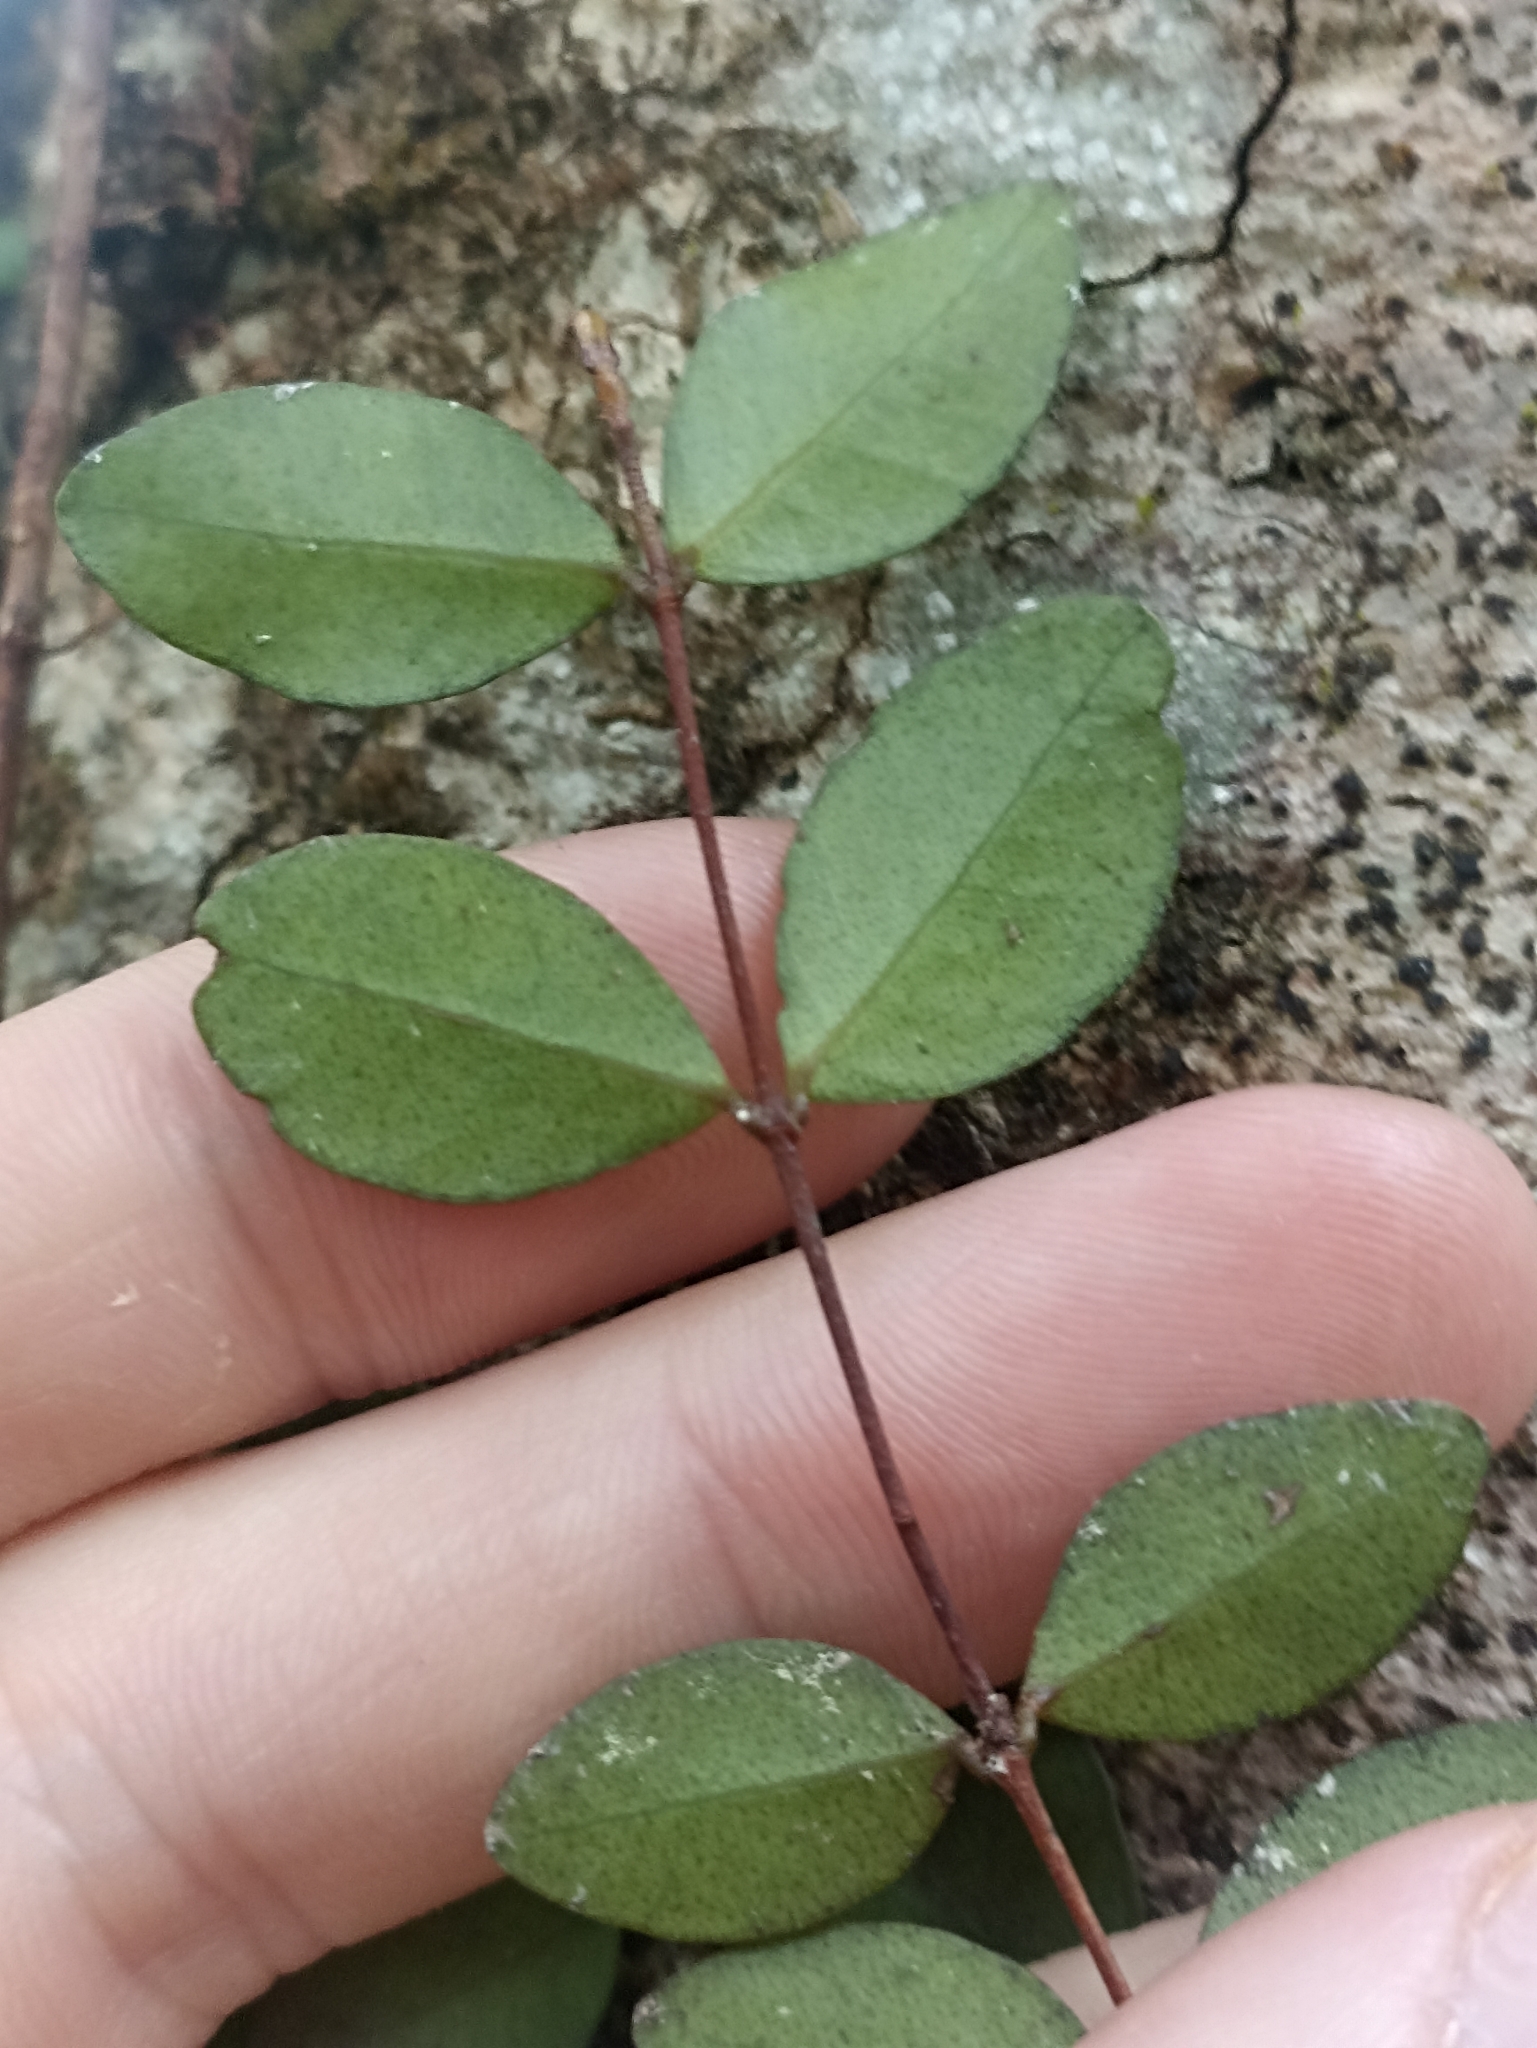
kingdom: Plantae
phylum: Tracheophyta
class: Magnoliopsida
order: Myrtales
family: Myrtaceae
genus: Metrosideros
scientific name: Metrosideros fulgens
